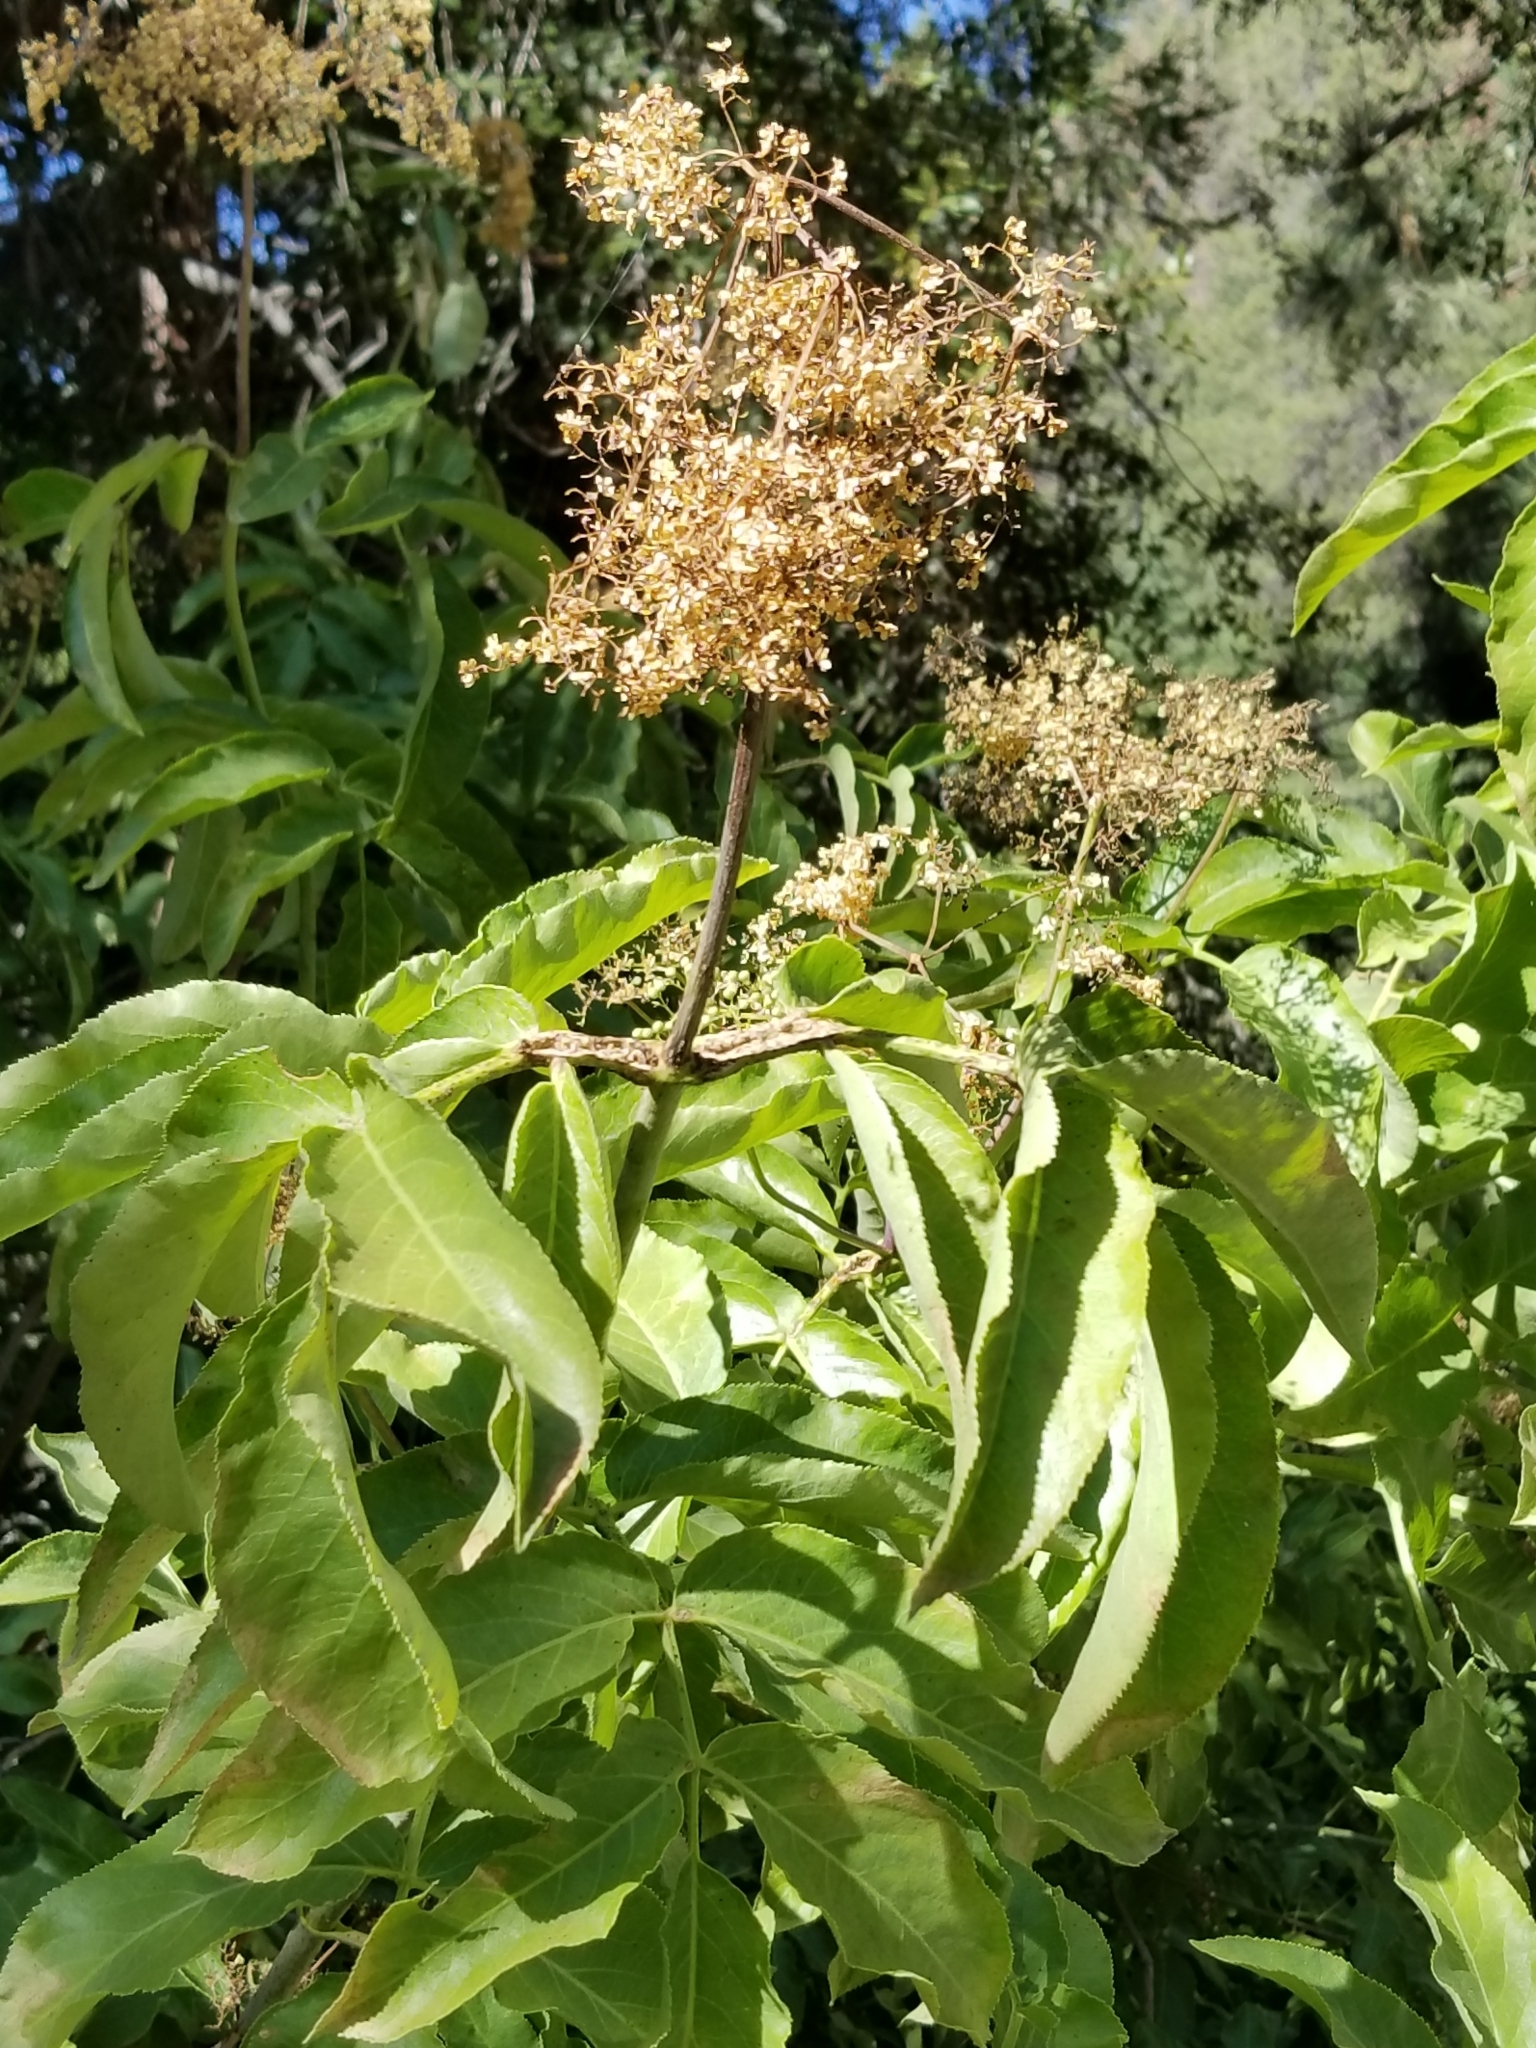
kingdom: Plantae
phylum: Tracheophyta
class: Magnoliopsida
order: Dipsacales
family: Viburnaceae
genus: Sambucus
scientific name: Sambucus cerulea
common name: Blue elder
